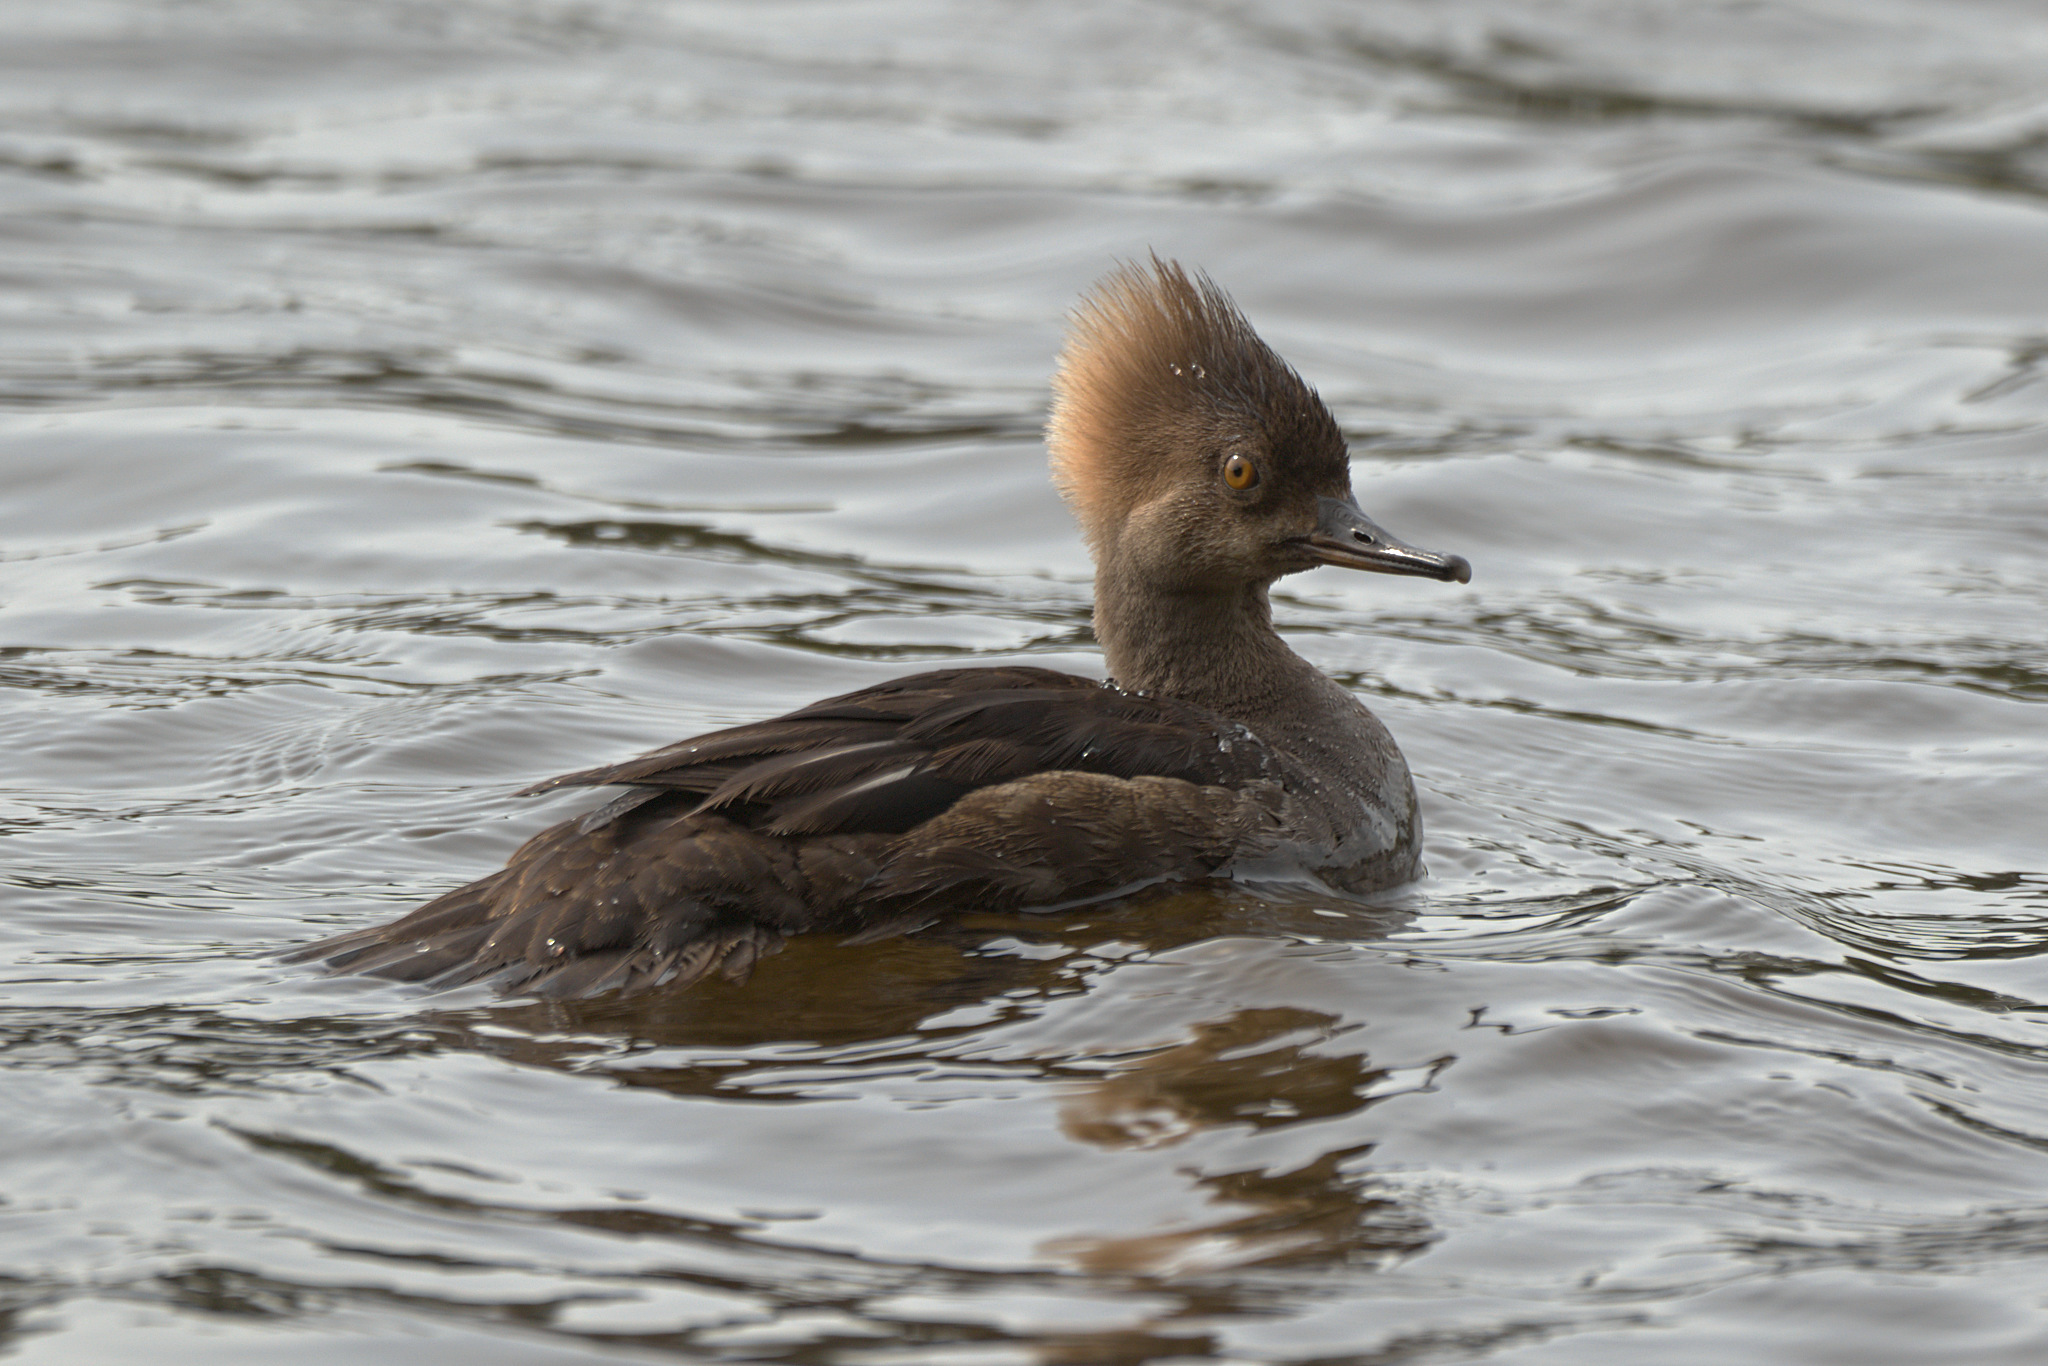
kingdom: Animalia
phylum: Chordata
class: Aves
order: Anseriformes
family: Anatidae
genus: Lophodytes
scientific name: Lophodytes cucullatus
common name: Hooded merganser
